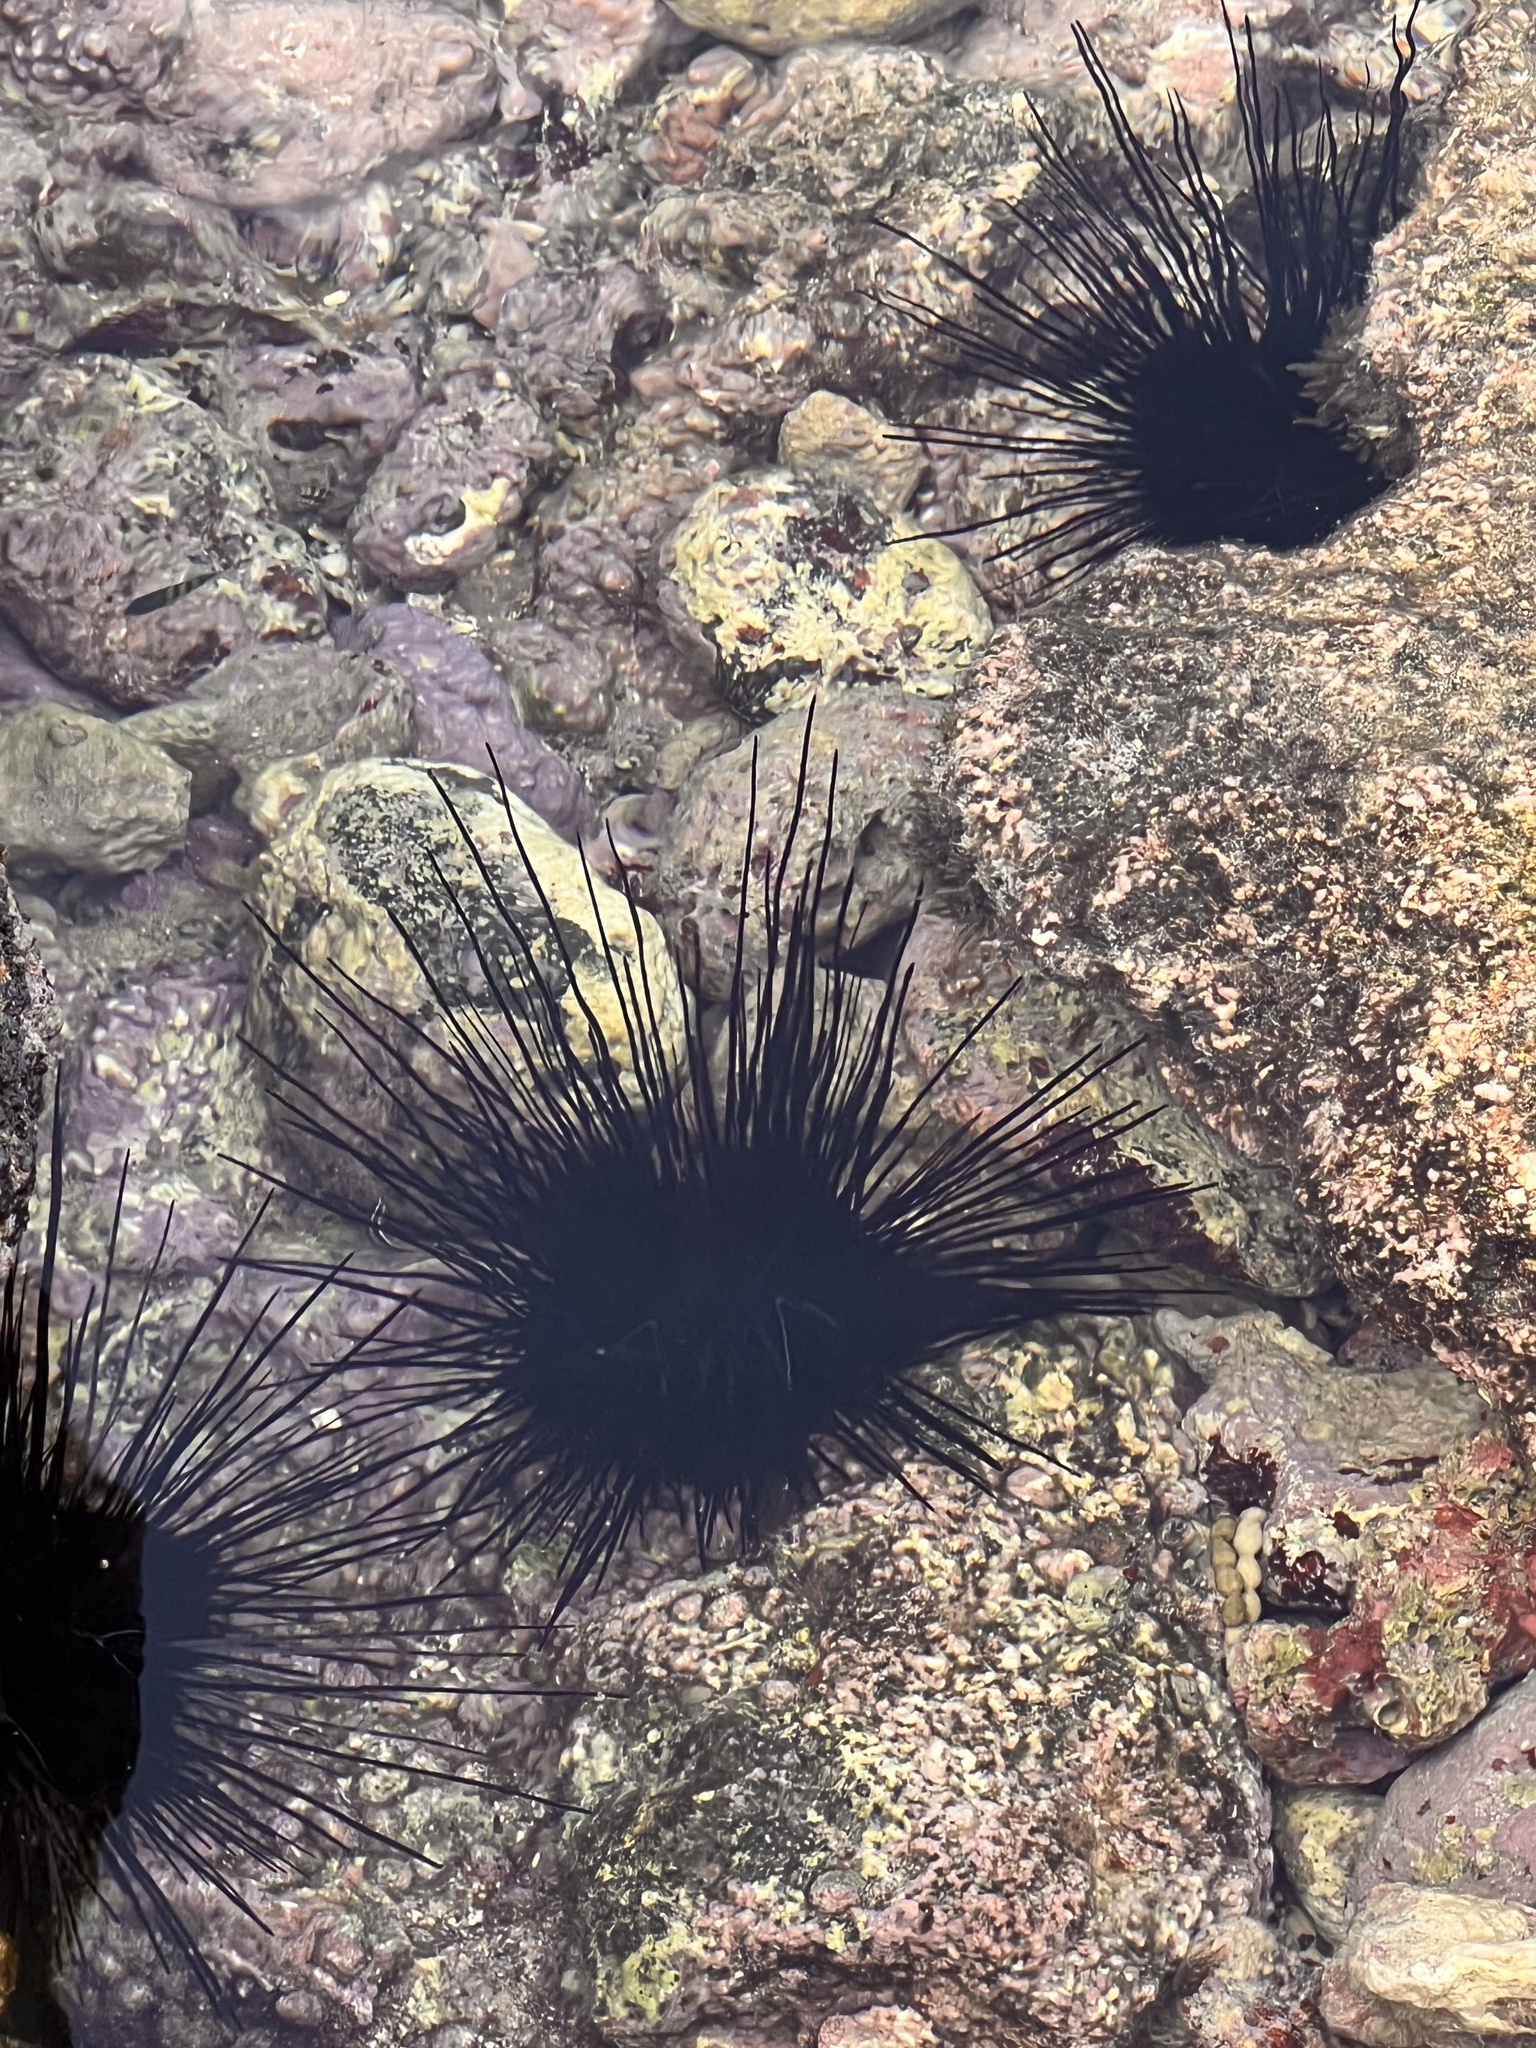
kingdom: Animalia
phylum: Echinodermata
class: Echinoidea
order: Diadematoida
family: Diadematidae
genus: Diadema
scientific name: Diadema savignyi
